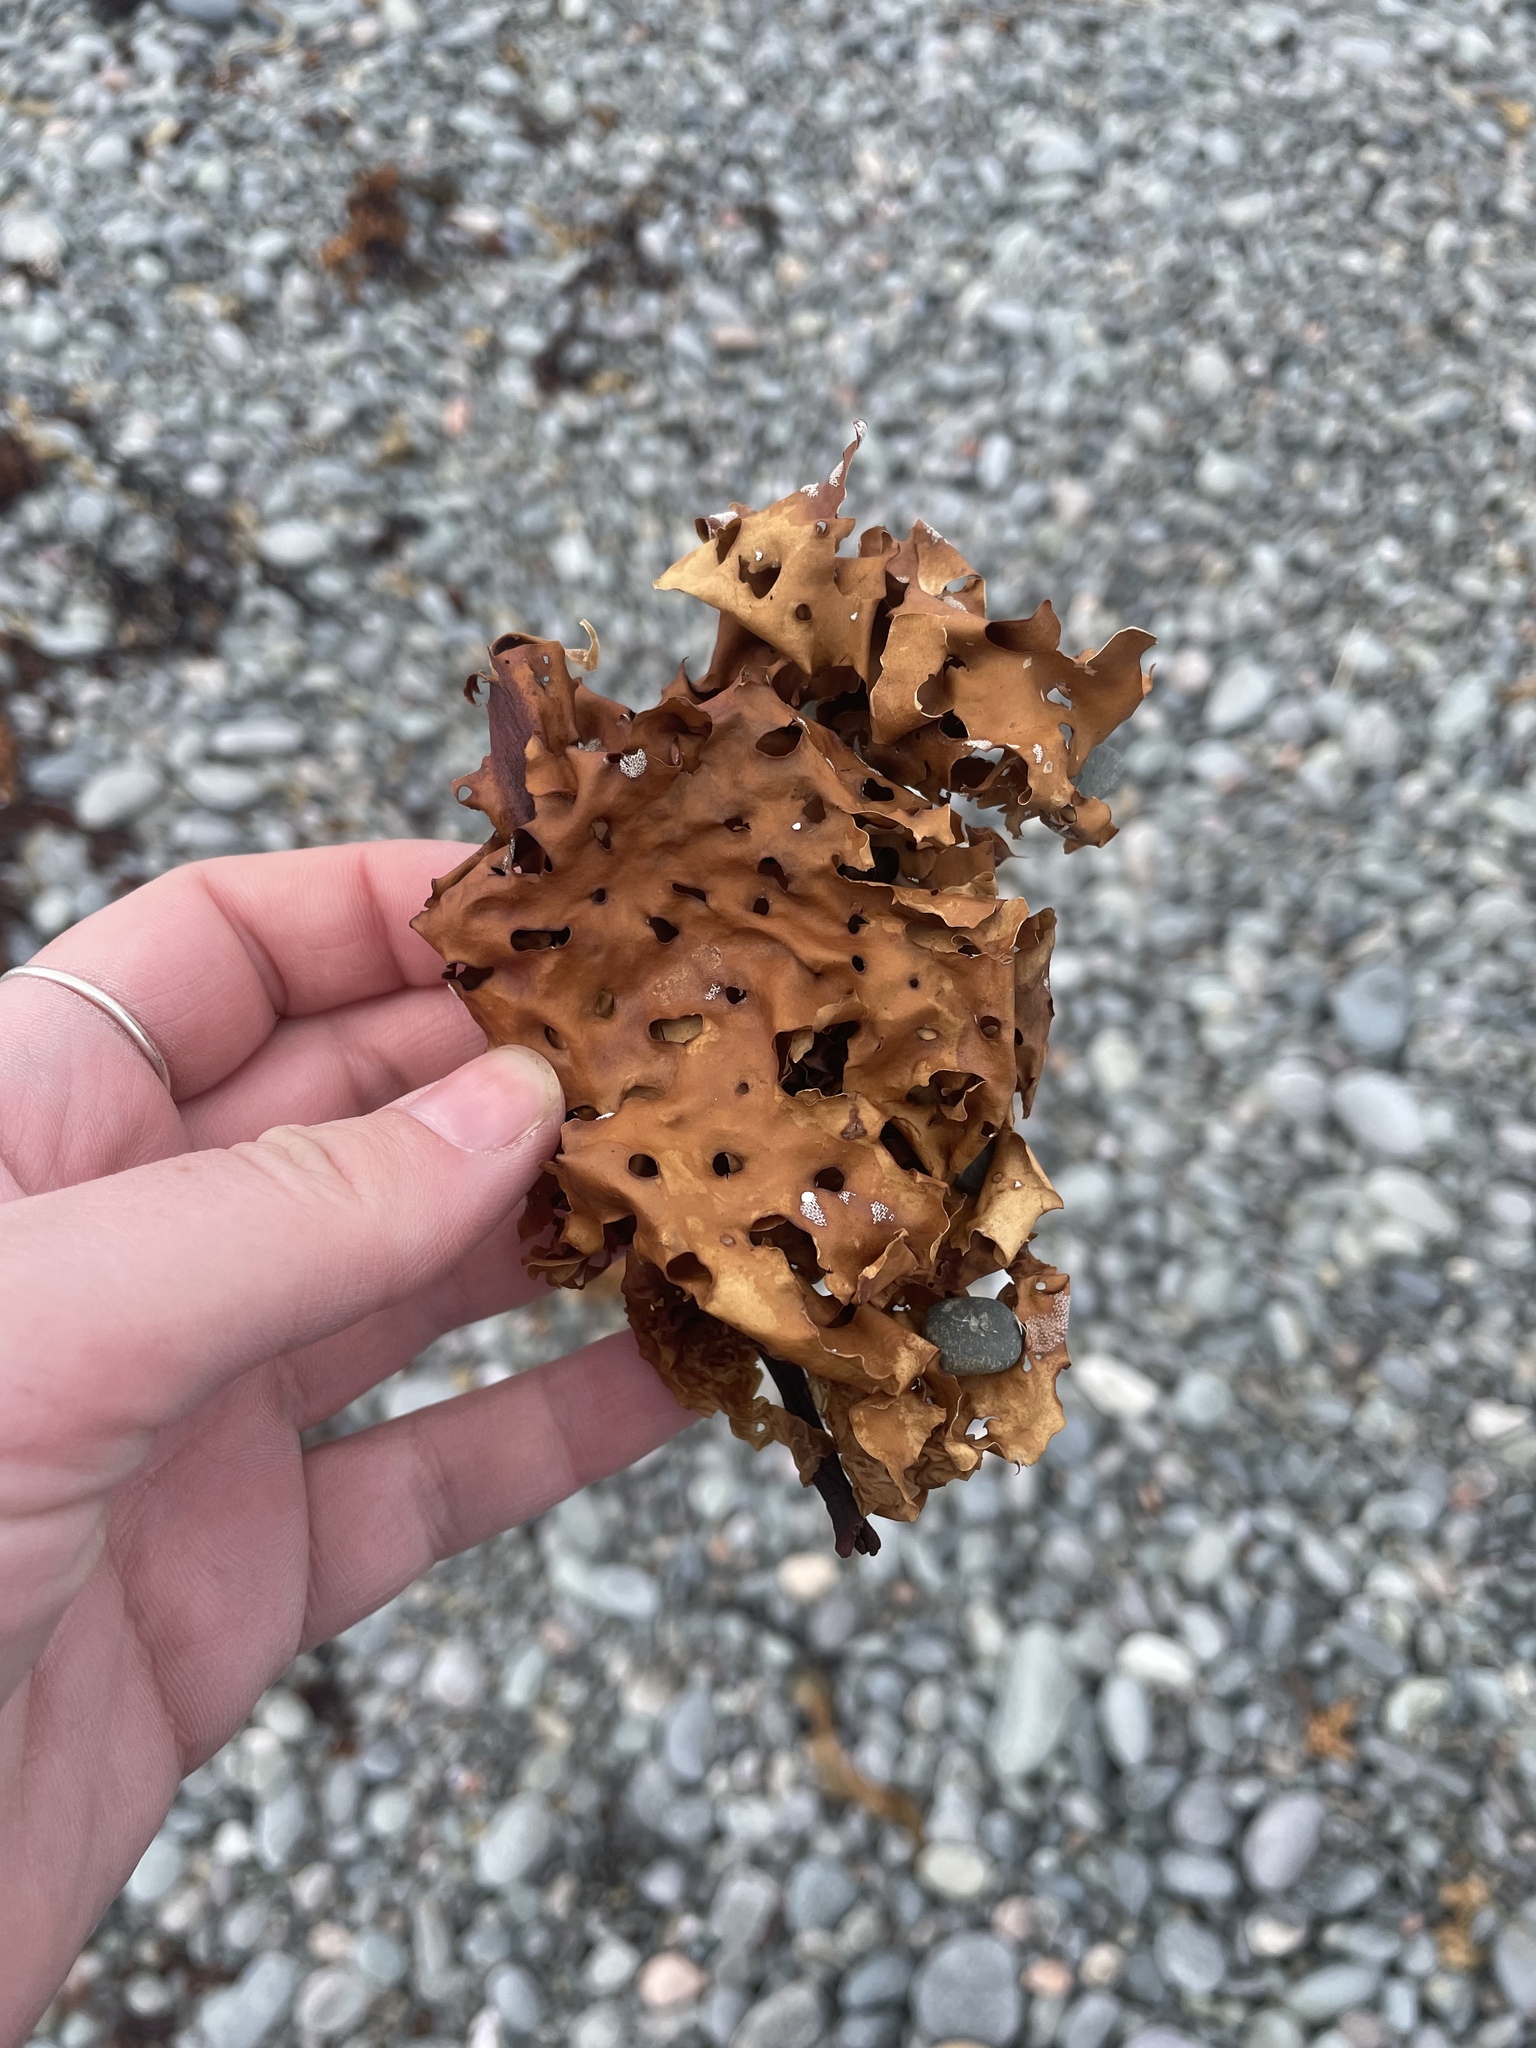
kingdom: Chromista
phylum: Ochrophyta
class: Phaeophyceae
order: Laminariales
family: Costariaceae
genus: Agarum
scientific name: Agarum clathratum
